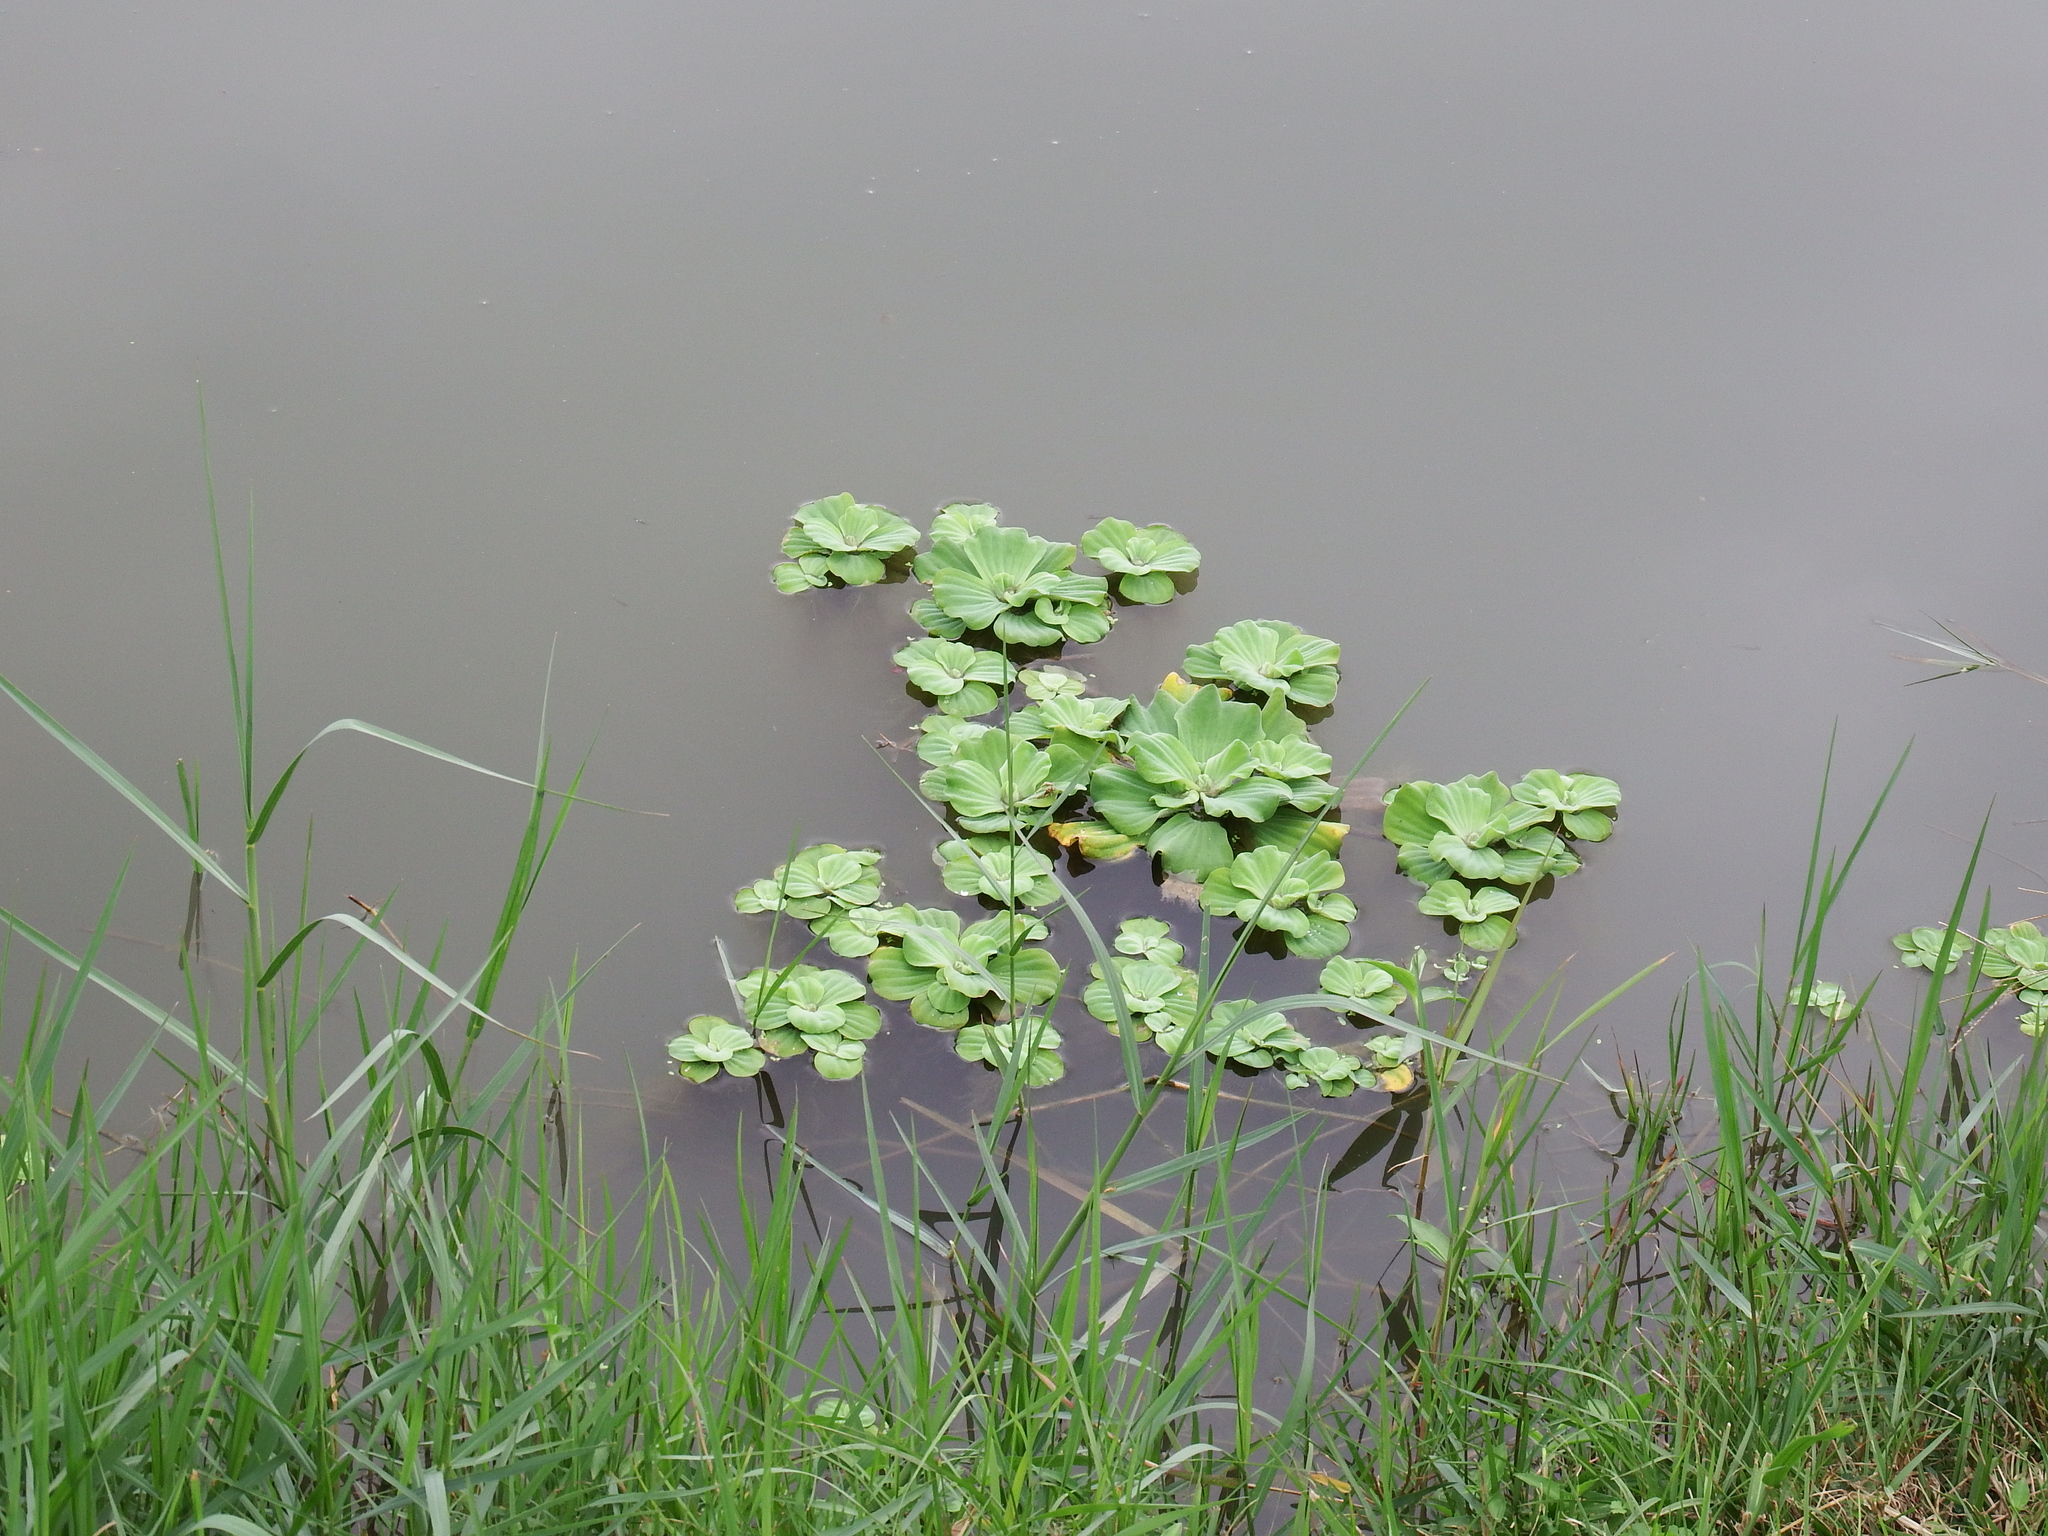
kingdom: Plantae
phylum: Tracheophyta
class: Liliopsida
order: Alismatales
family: Araceae
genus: Pistia
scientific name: Pistia stratiotes
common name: Water lettuce
